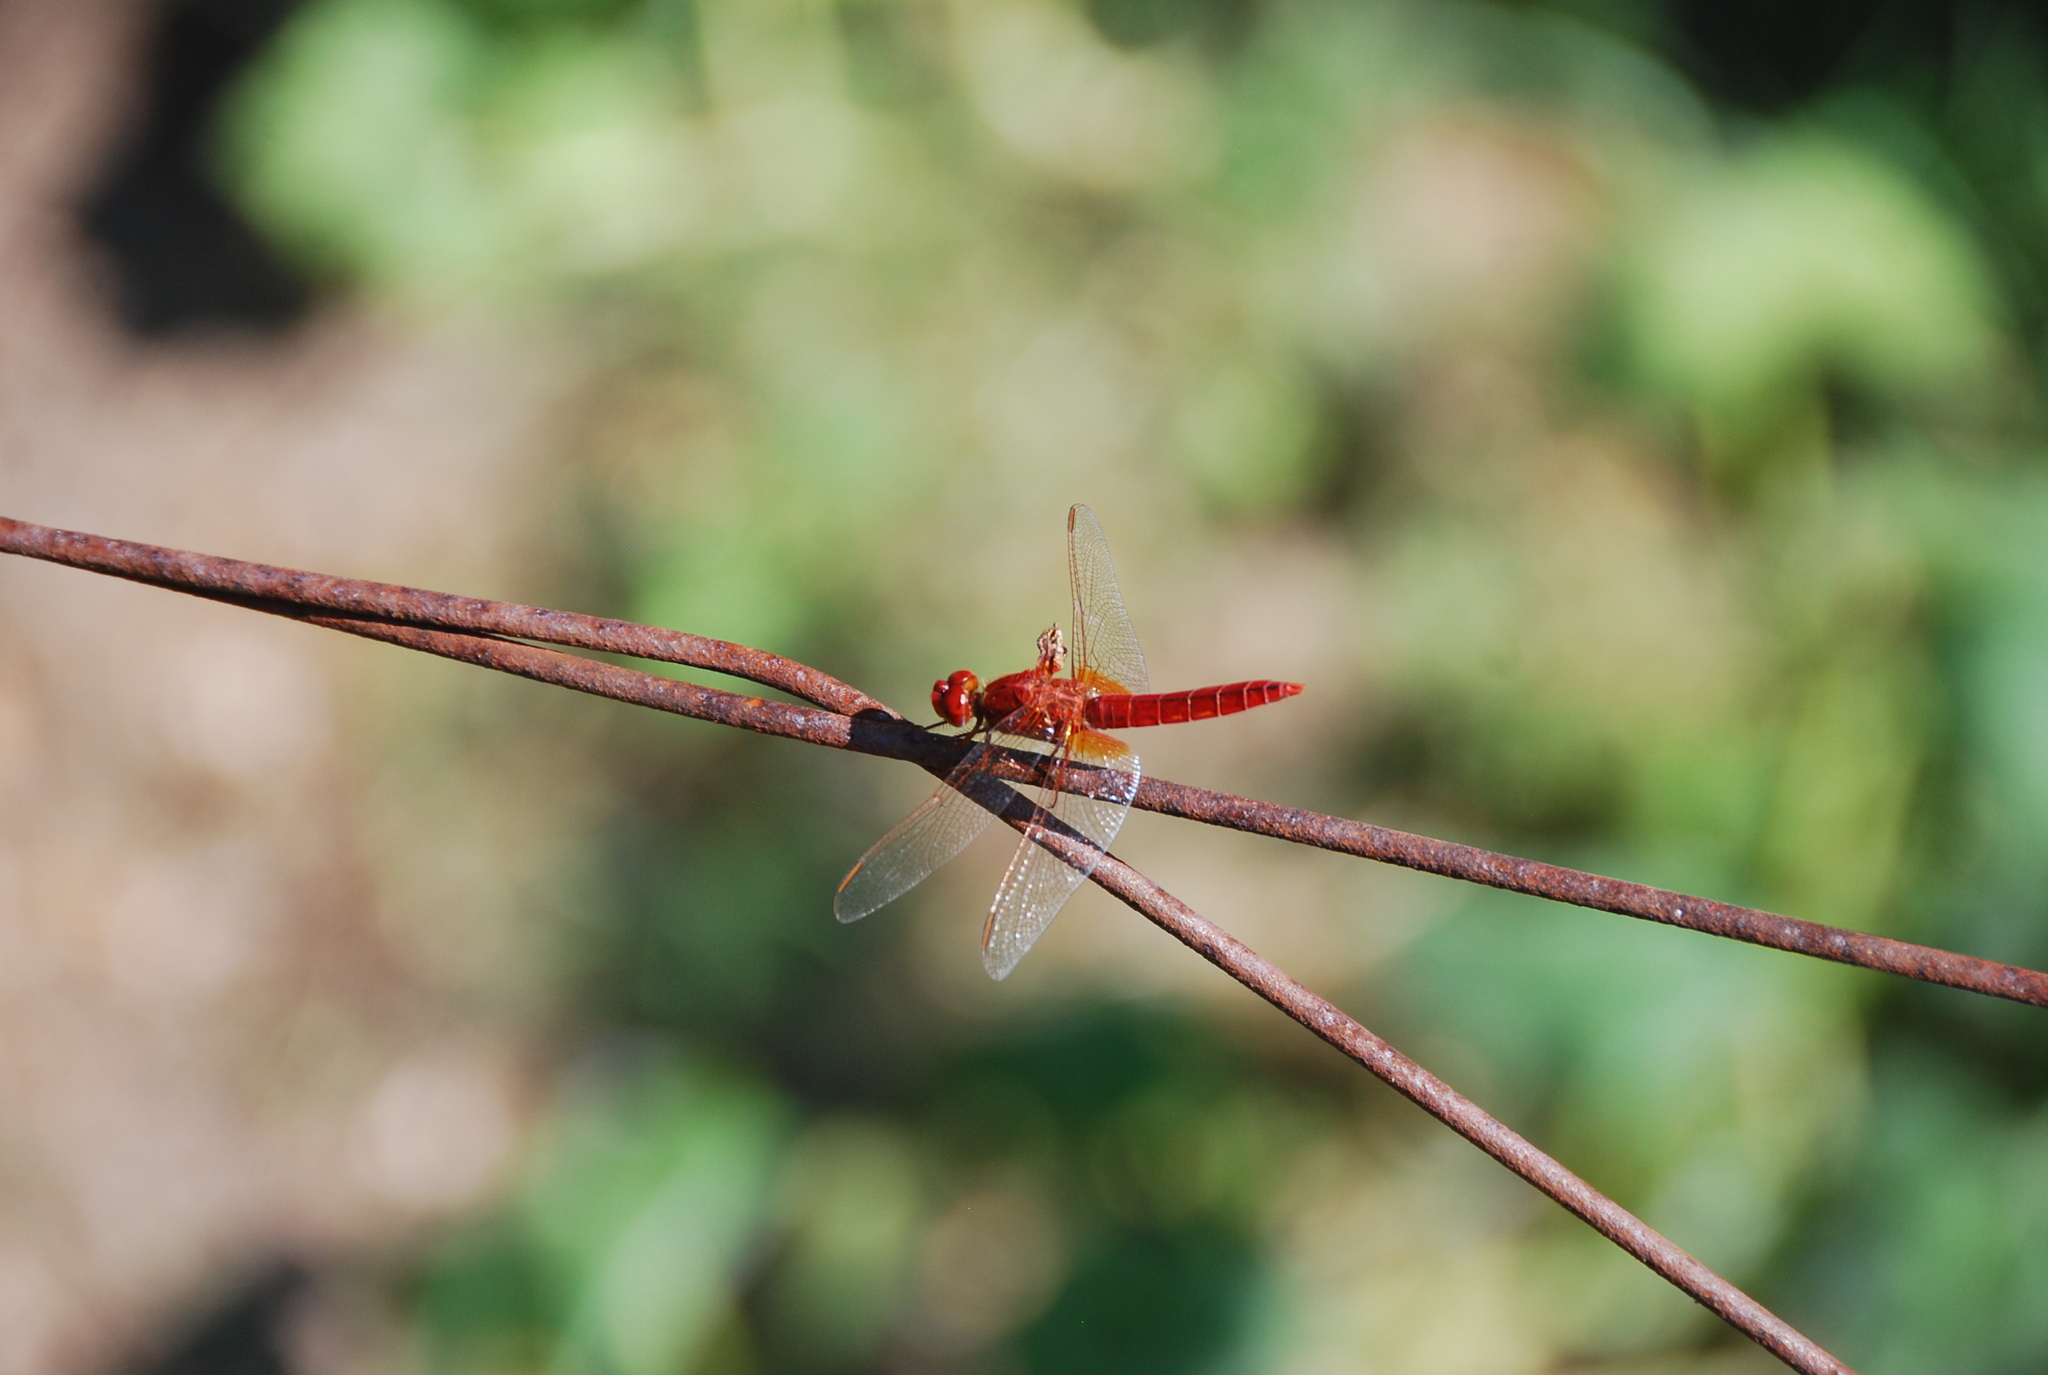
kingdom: Animalia
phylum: Arthropoda
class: Insecta
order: Odonata
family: Libellulidae
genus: Crocothemis
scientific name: Crocothemis erythraea
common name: Scarlet dragonfly
